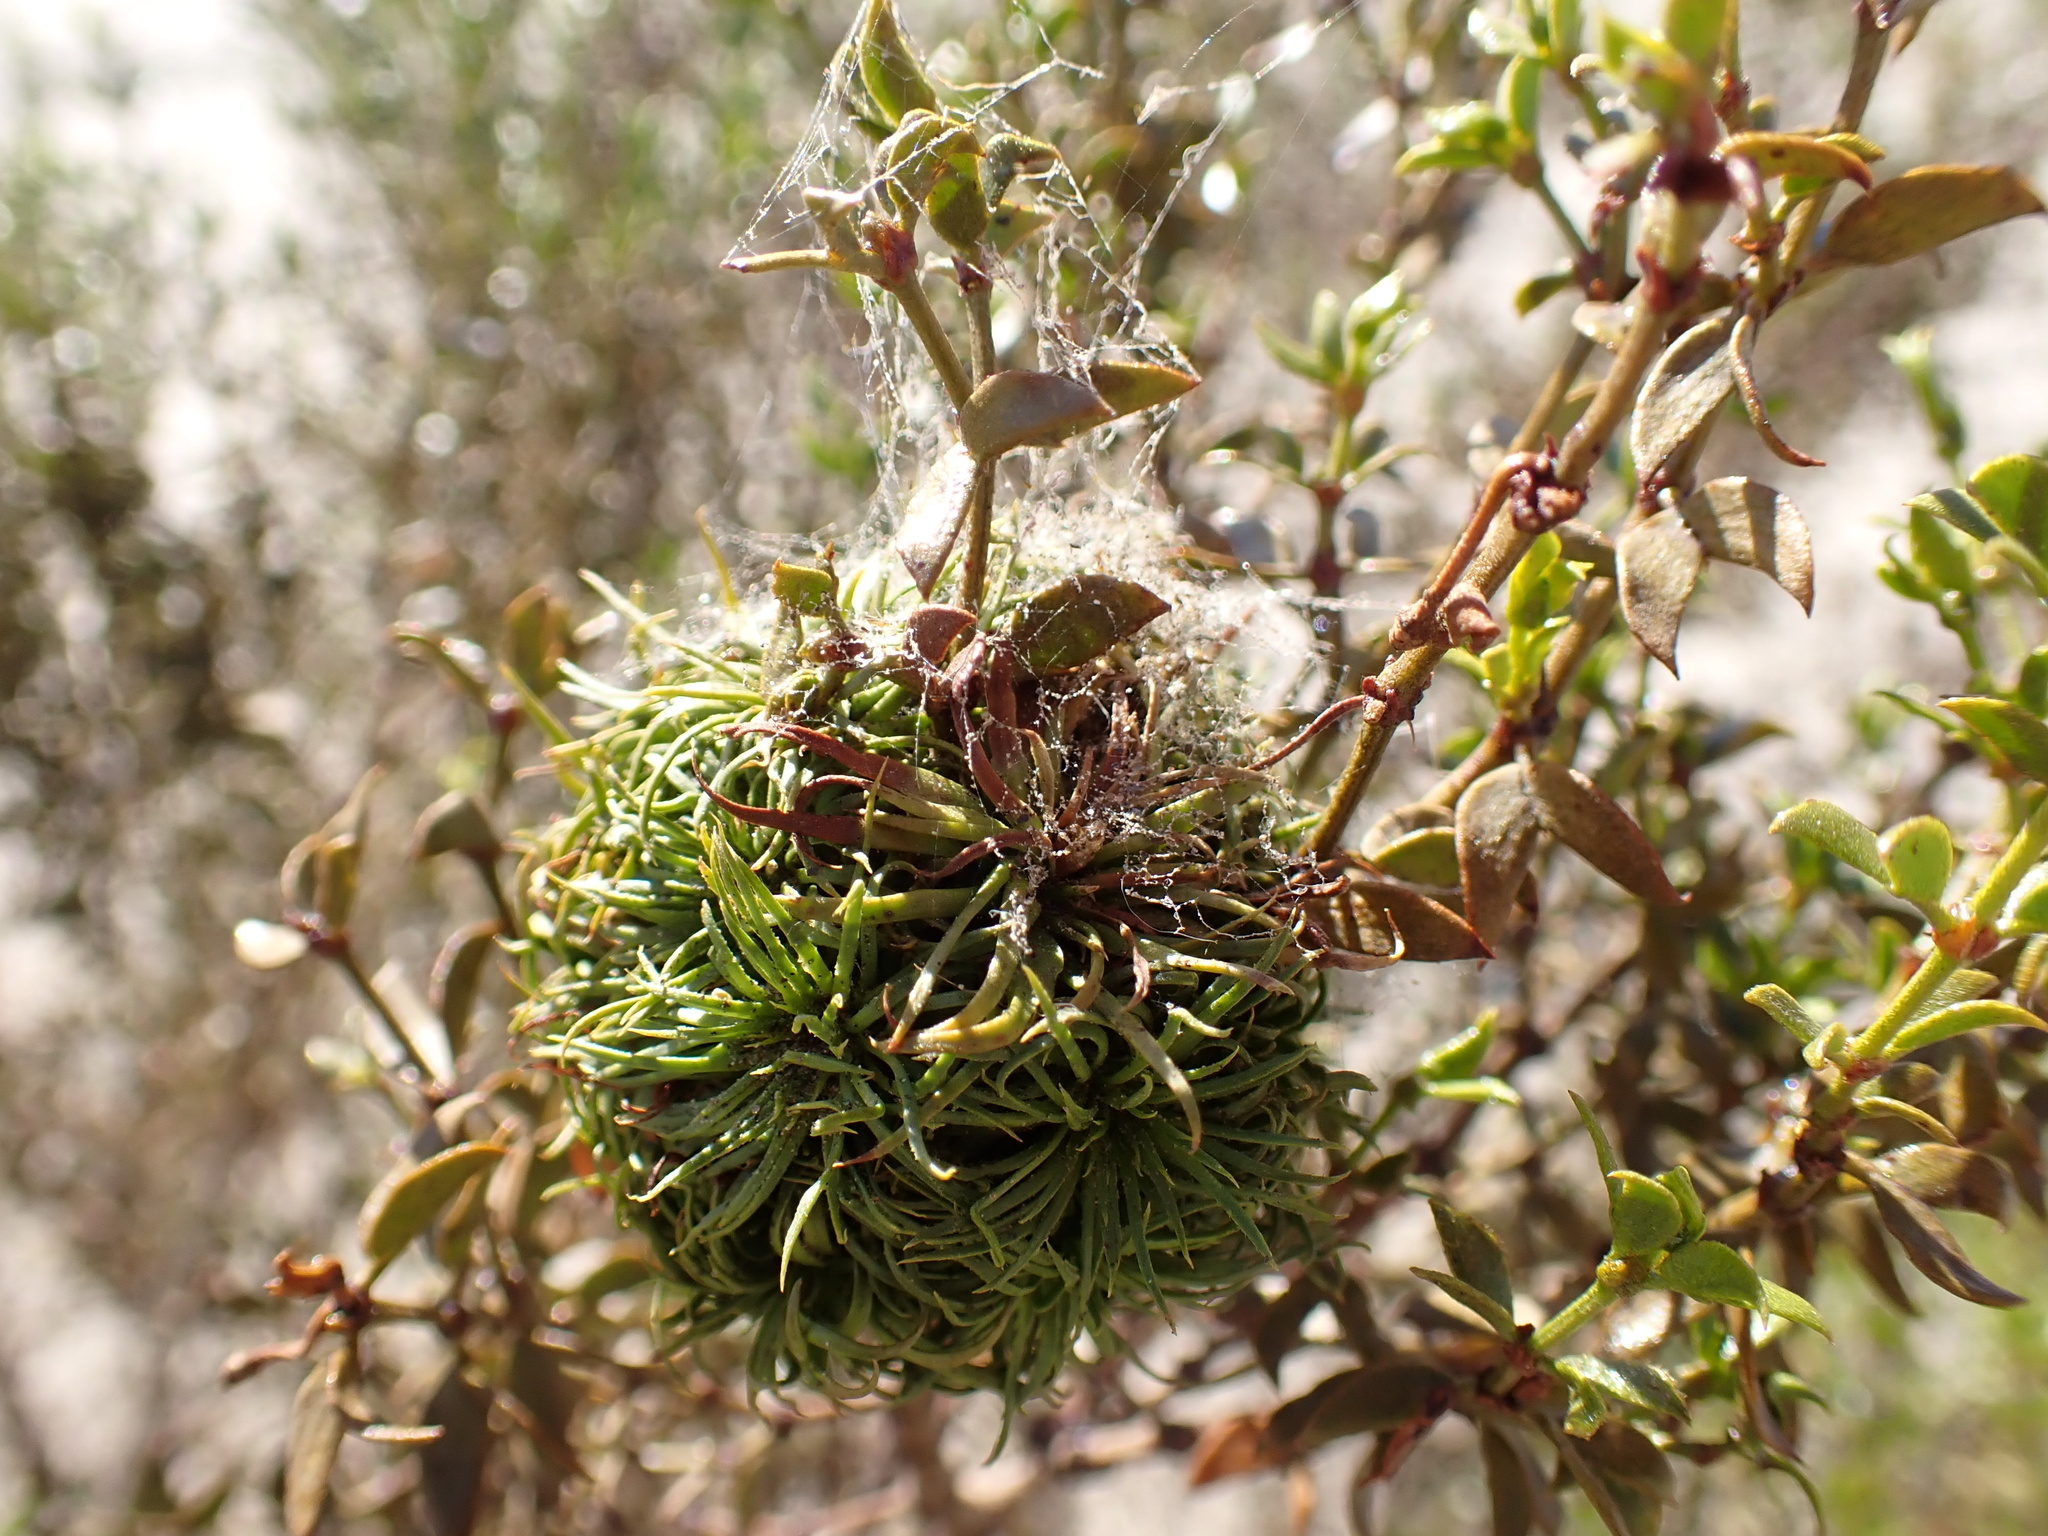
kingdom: Animalia
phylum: Arthropoda
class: Insecta
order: Diptera
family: Cecidomyiidae
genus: Asphondylia
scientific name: Asphondylia auripila
